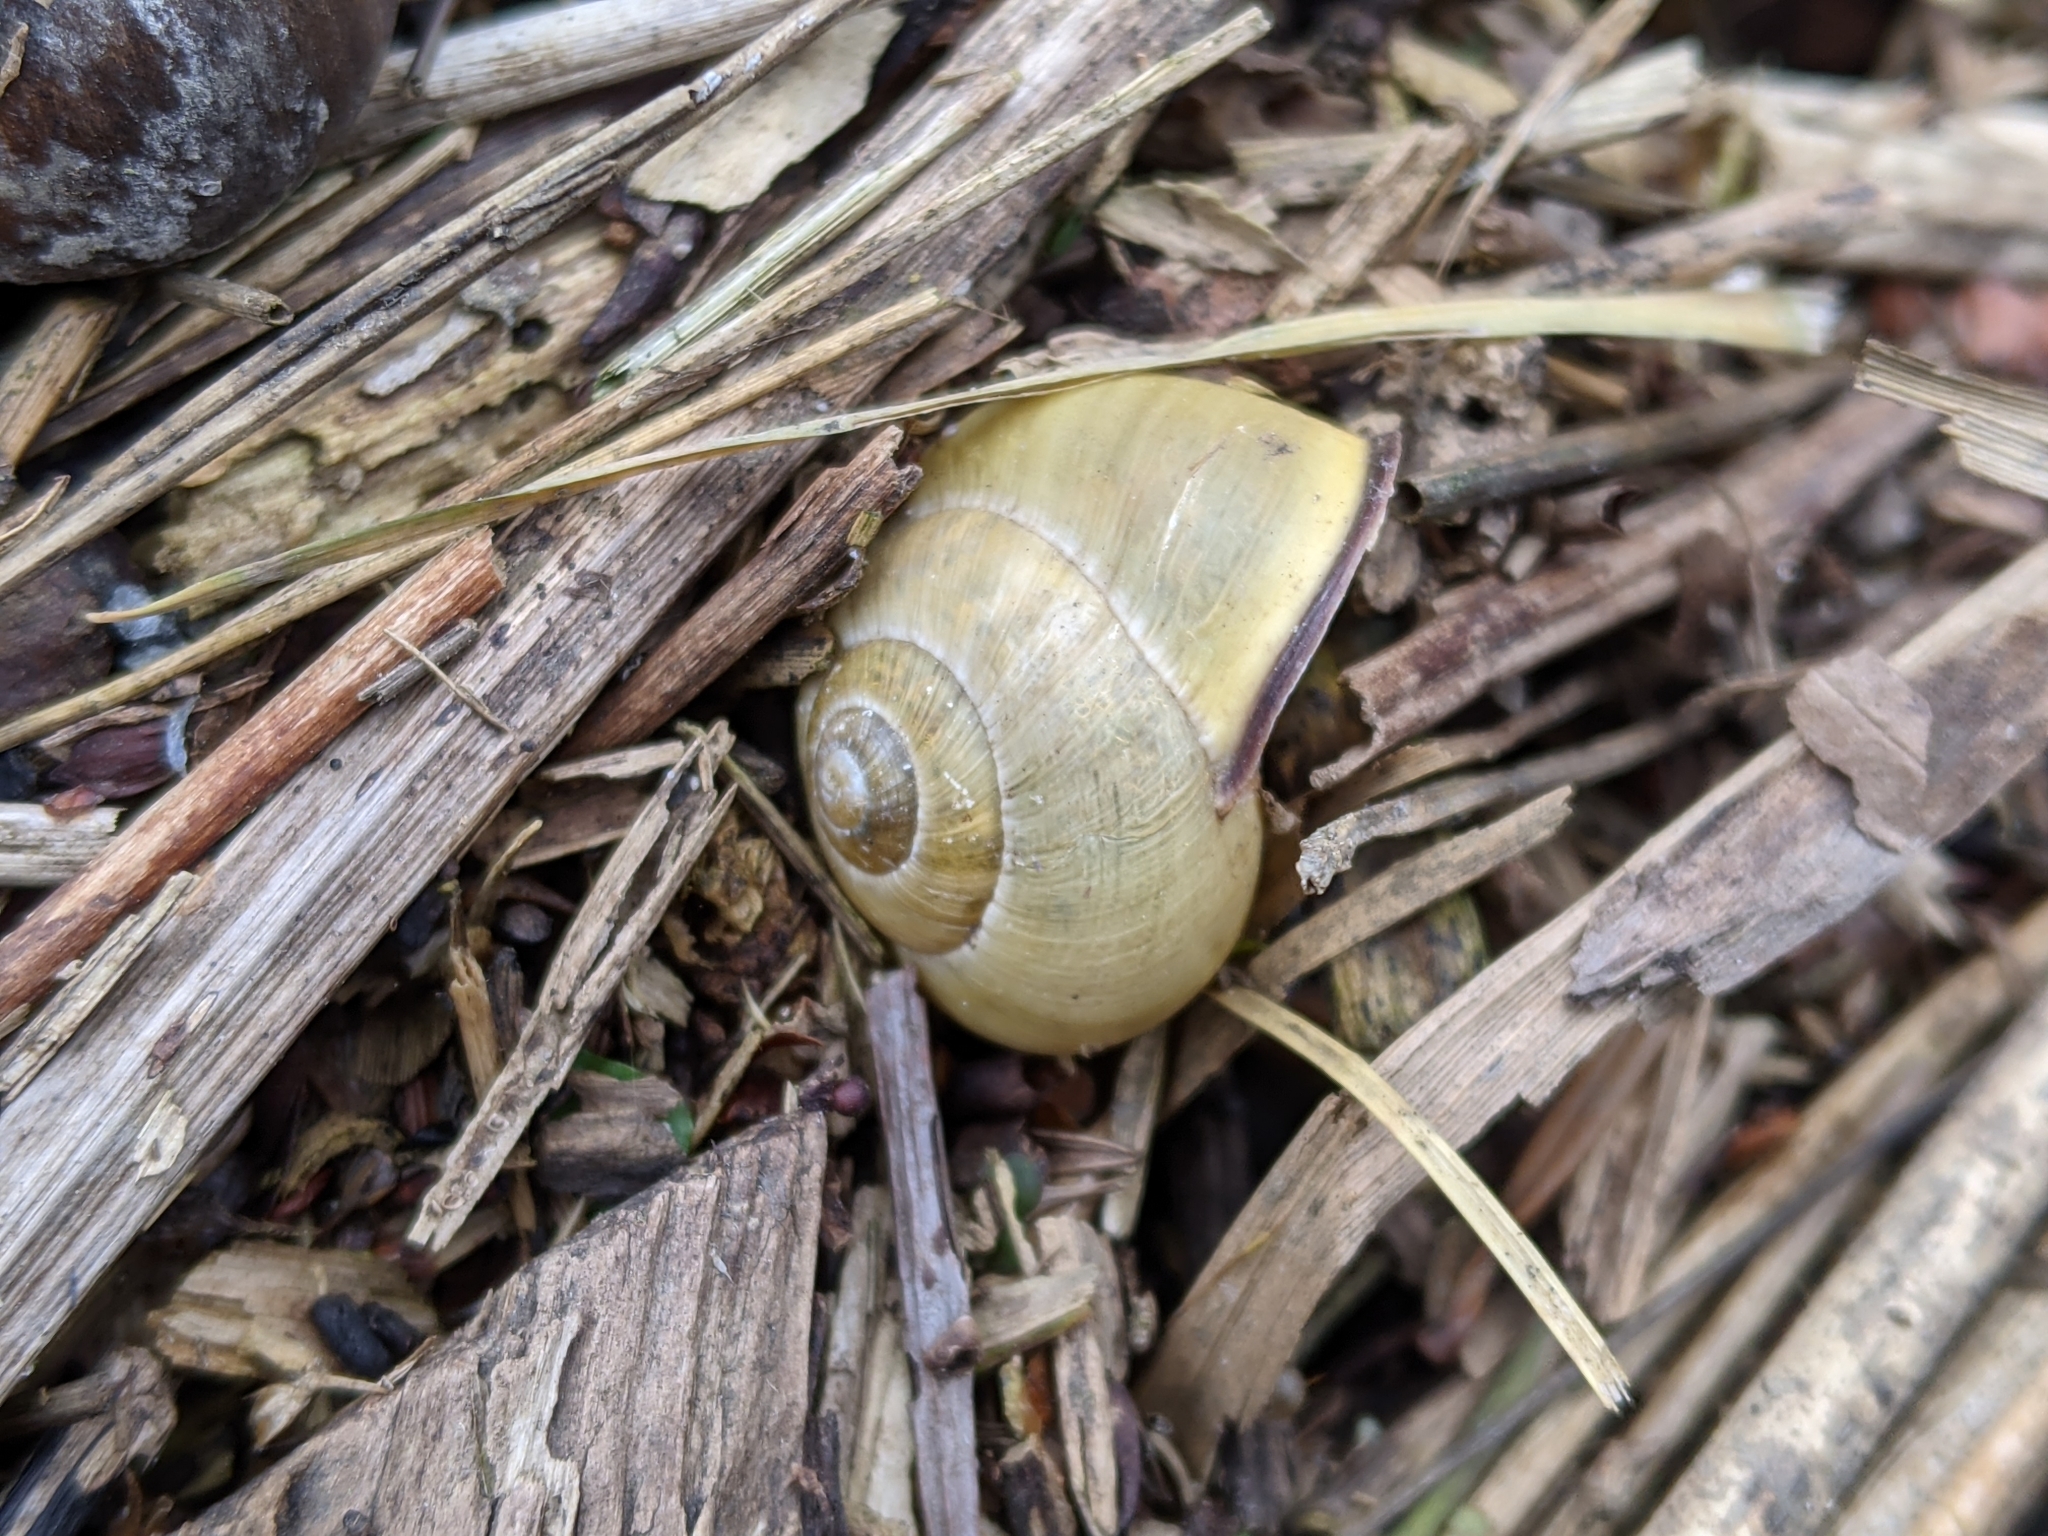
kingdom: Animalia
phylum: Mollusca
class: Gastropoda
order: Stylommatophora
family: Helicidae
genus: Cepaea
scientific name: Cepaea nemoralis
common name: Grovesnail
